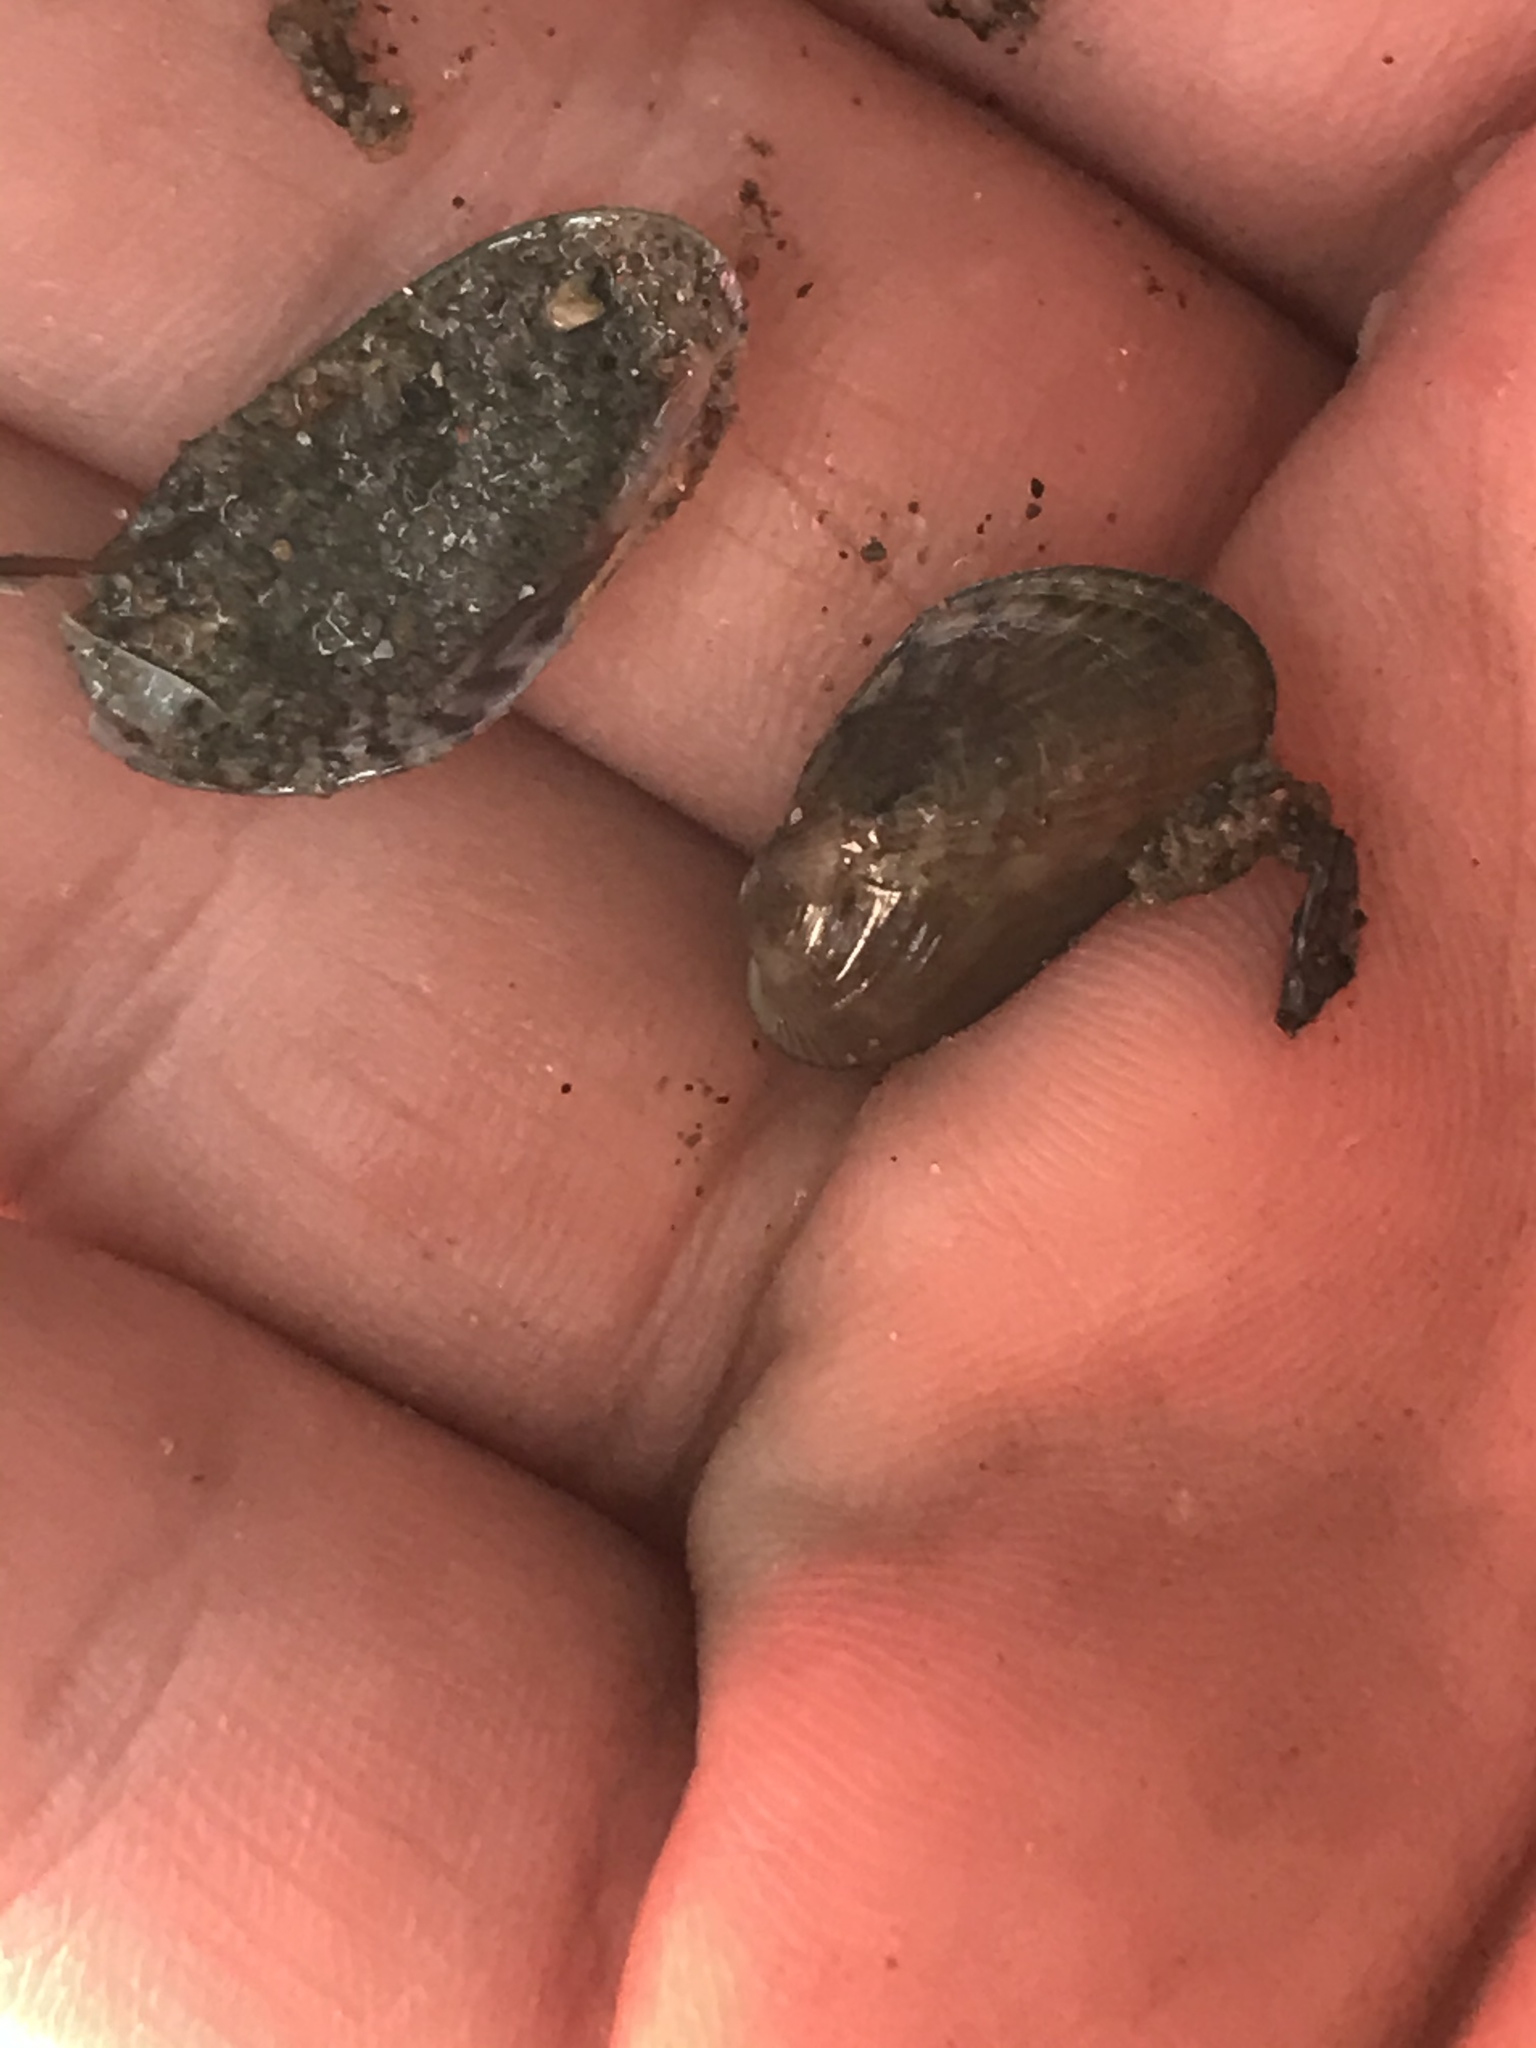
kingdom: Animalia
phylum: Mollusca
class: Bivalvia
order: Mytilida
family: Mytilidae
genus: Arcuatula
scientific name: Arcuatula senhousia
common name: Asian mussel
